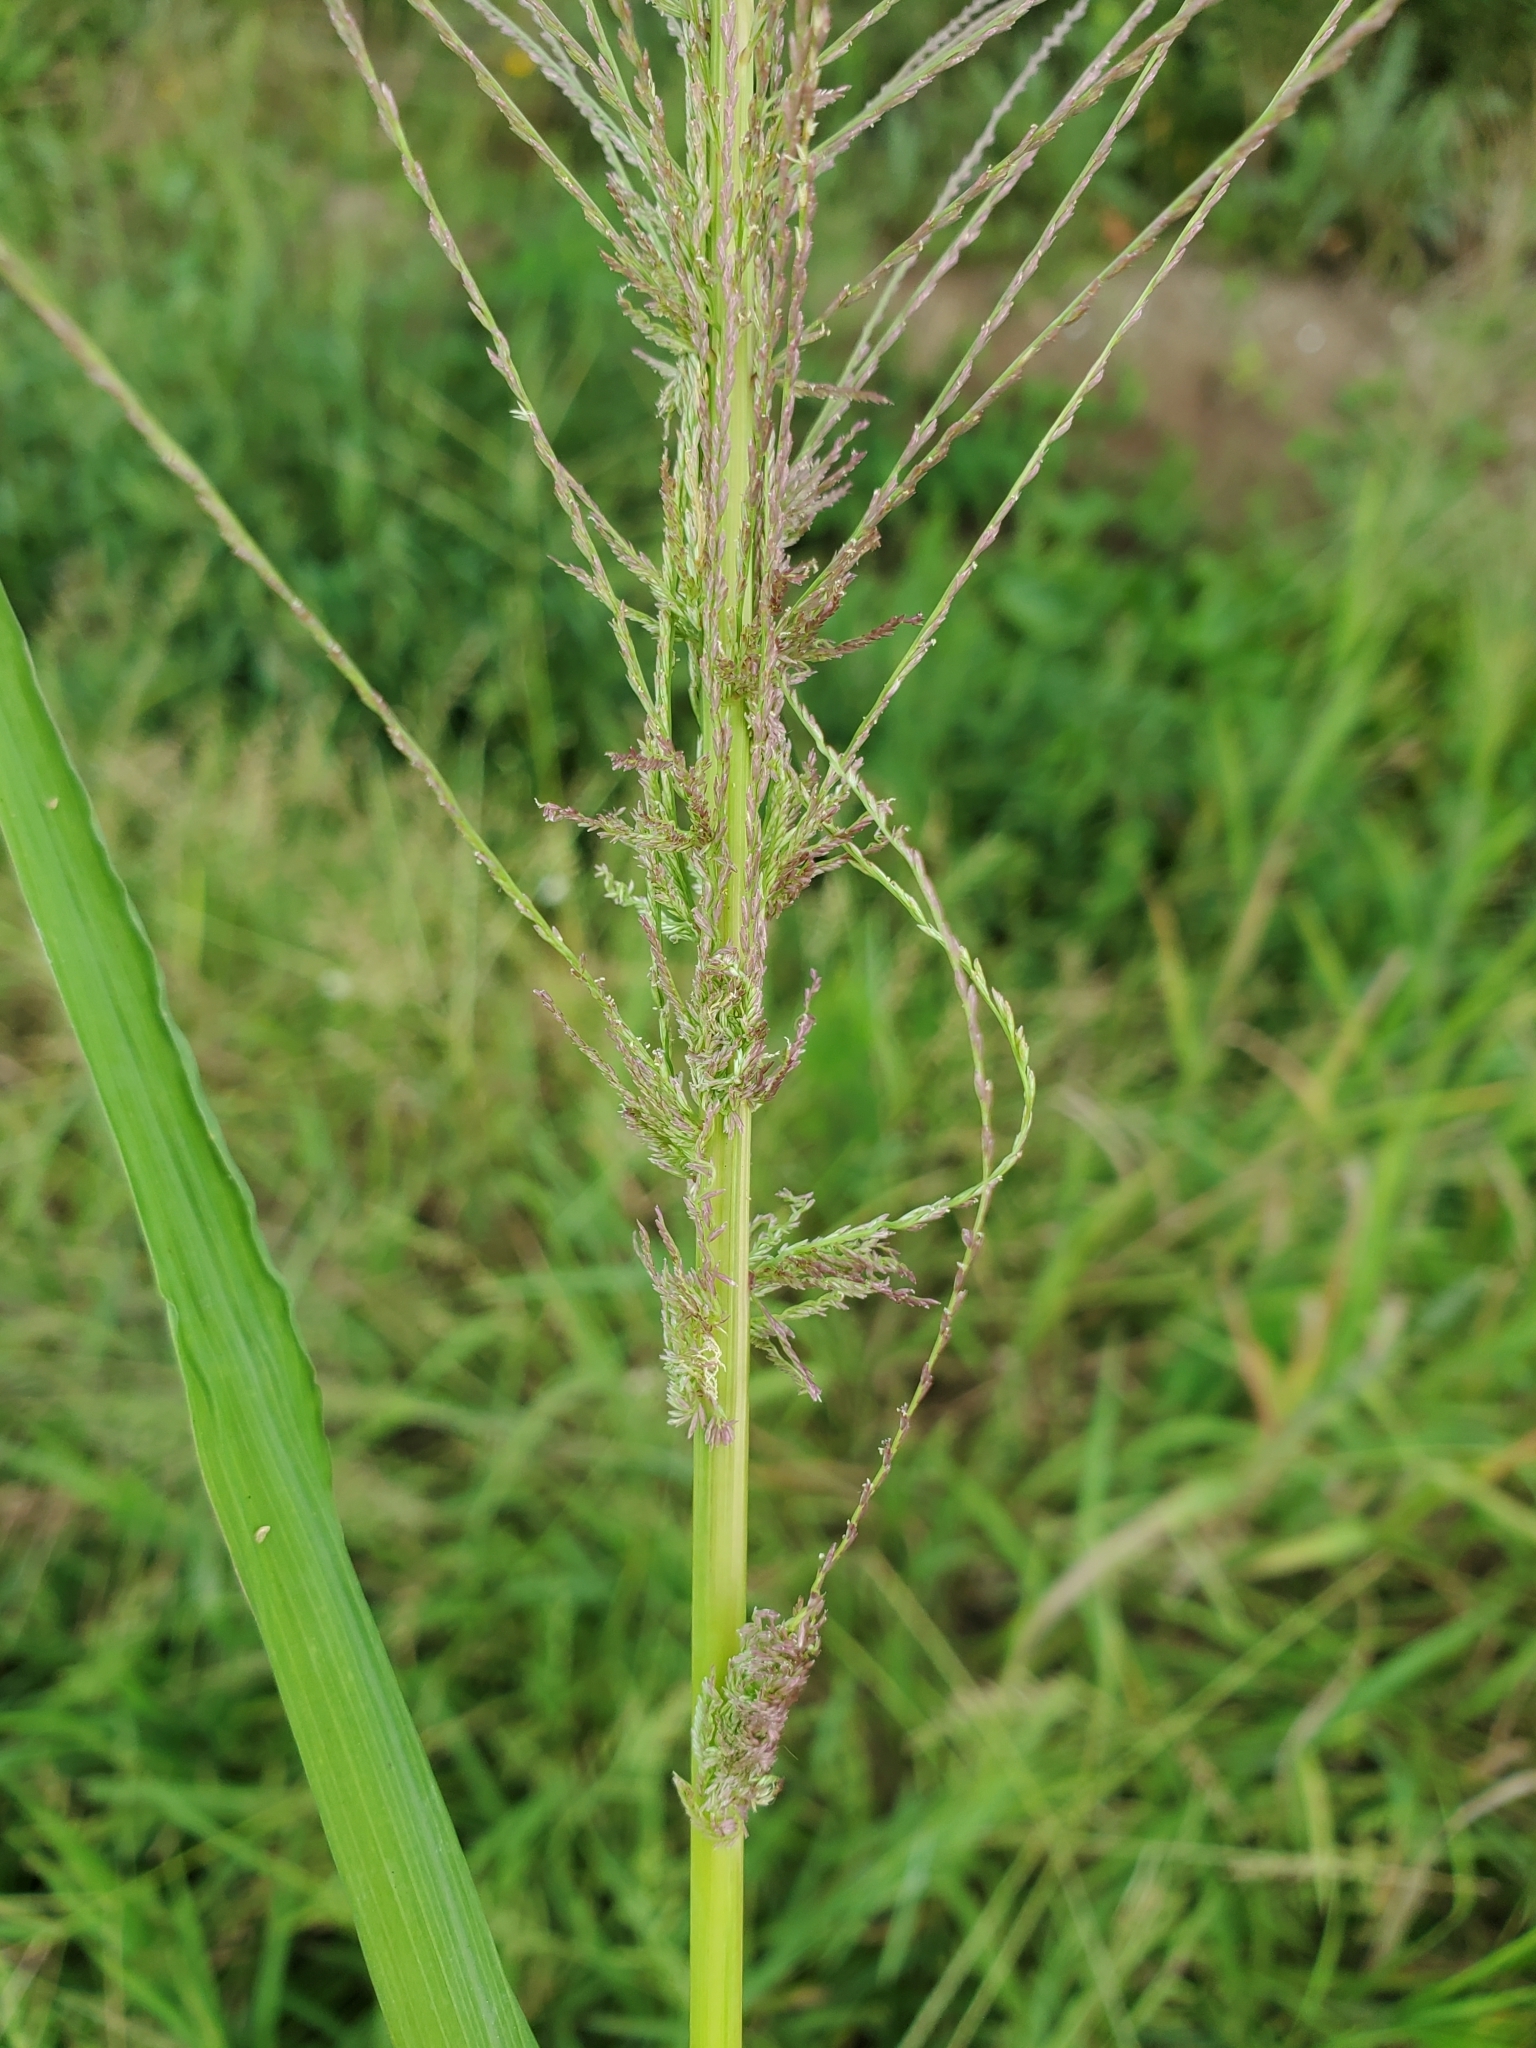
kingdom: Plantae
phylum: Tracheophyta
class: Liliopsida
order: Poales
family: Poaceae
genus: Leptochloa
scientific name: Leptochloa panicea
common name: Mucronate sprangletop
